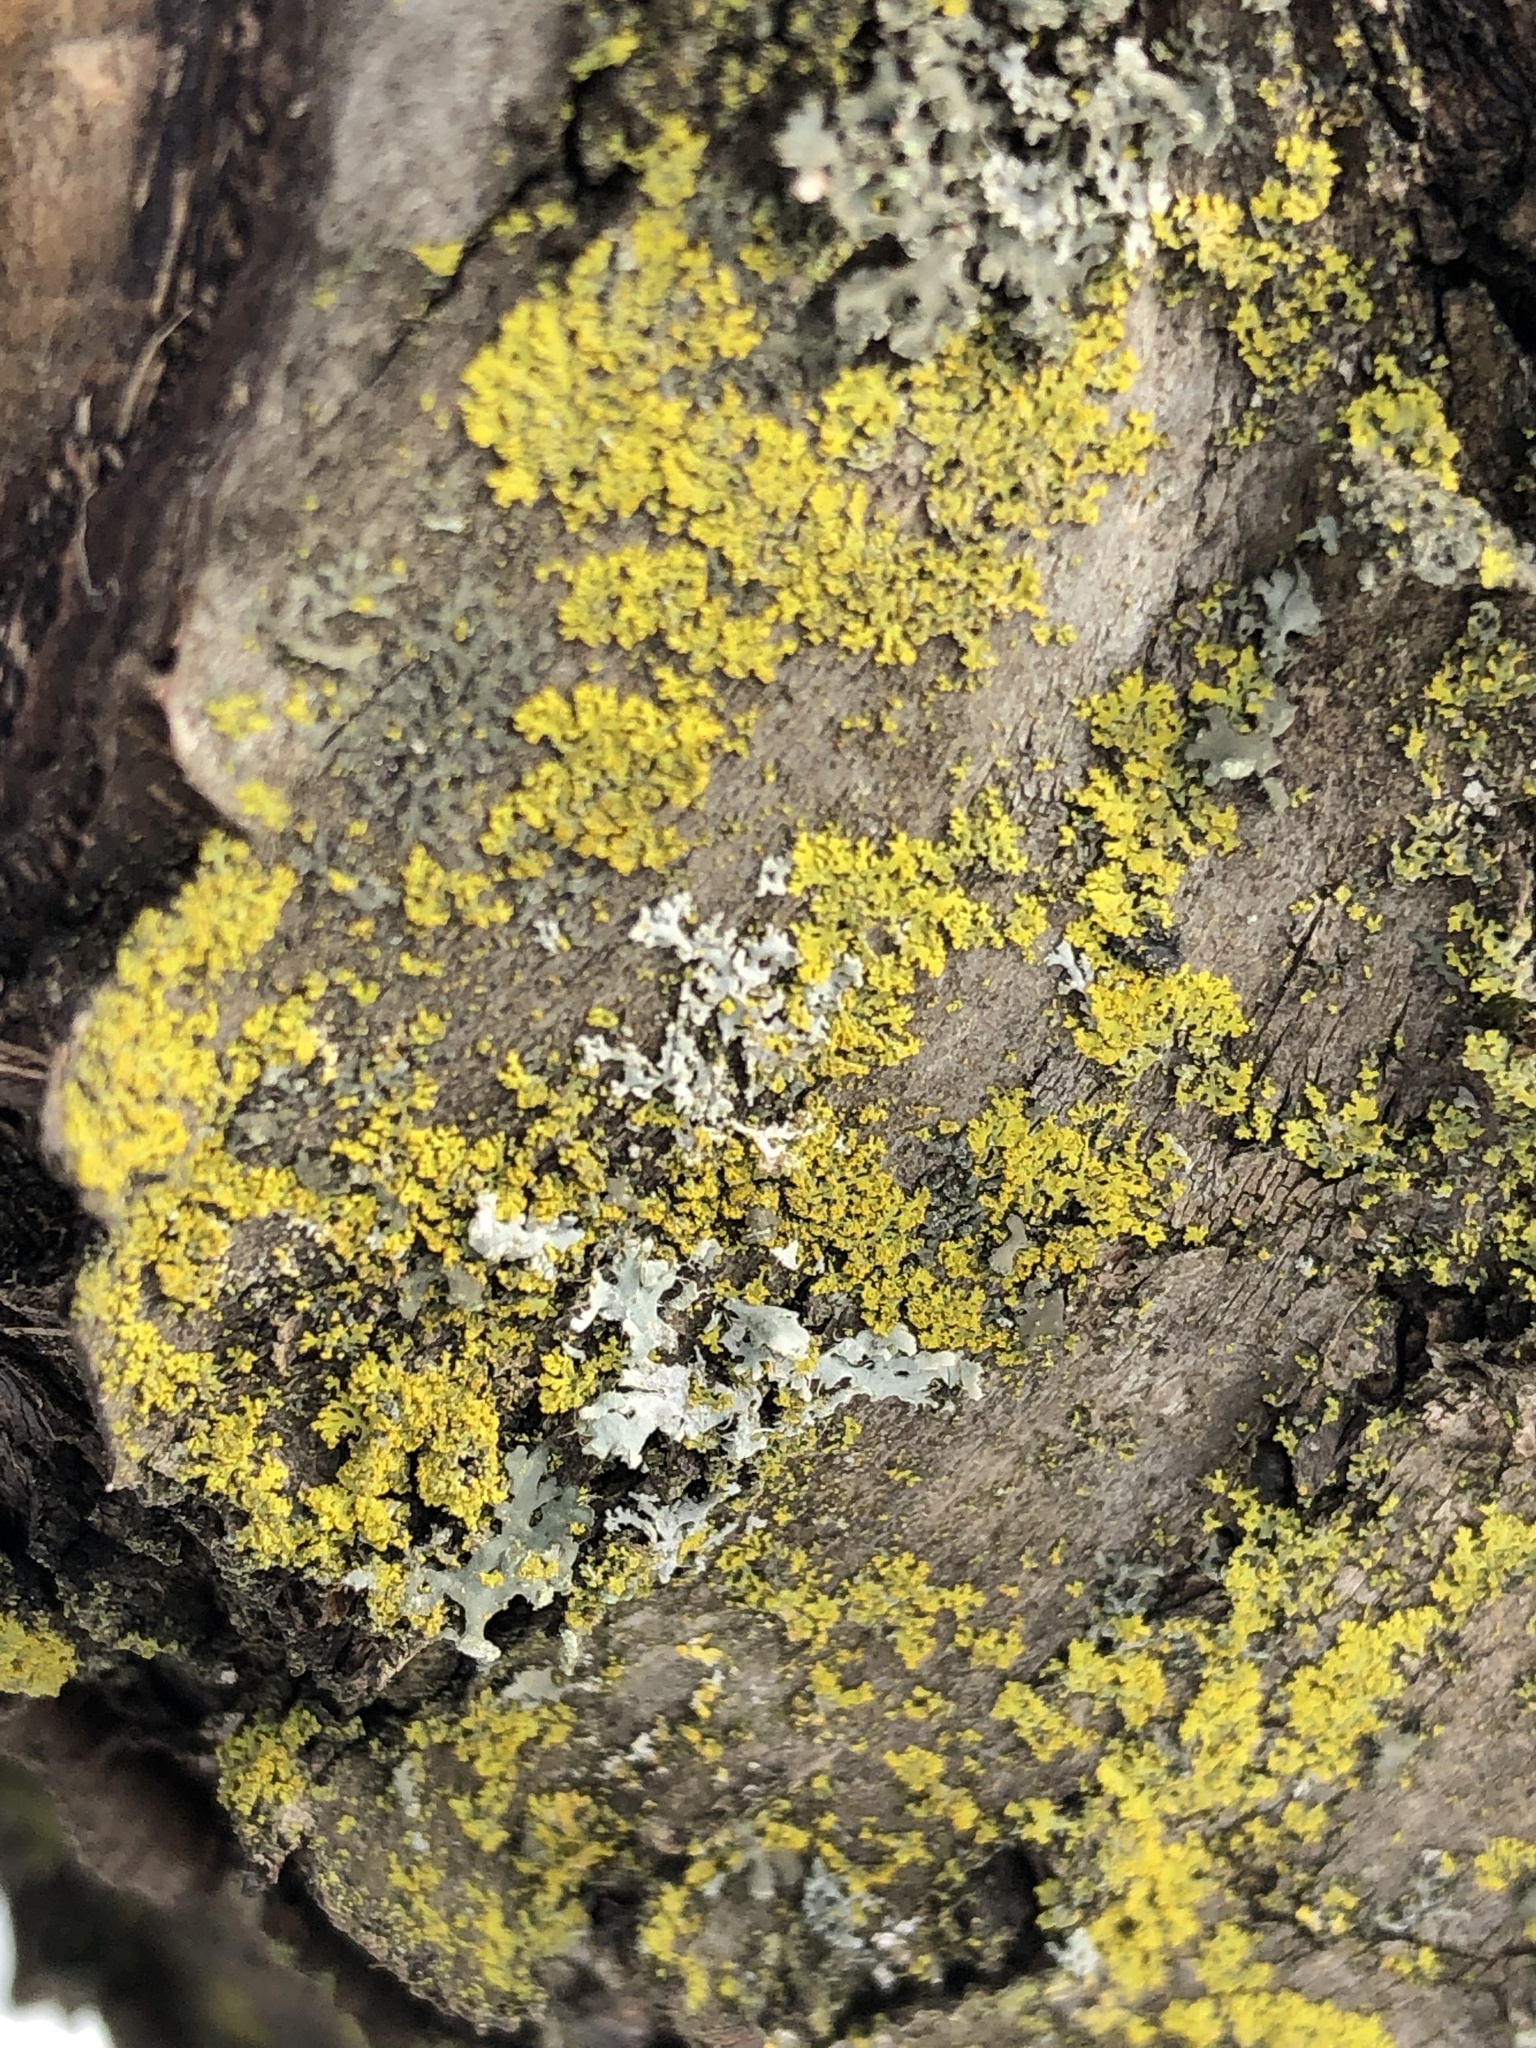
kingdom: Fungi
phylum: Ascomycota
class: Candelariomycetes
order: Candelariales
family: Candelariaceae
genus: Candelaria
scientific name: Candelaria concolor
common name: Candleflame lichen
